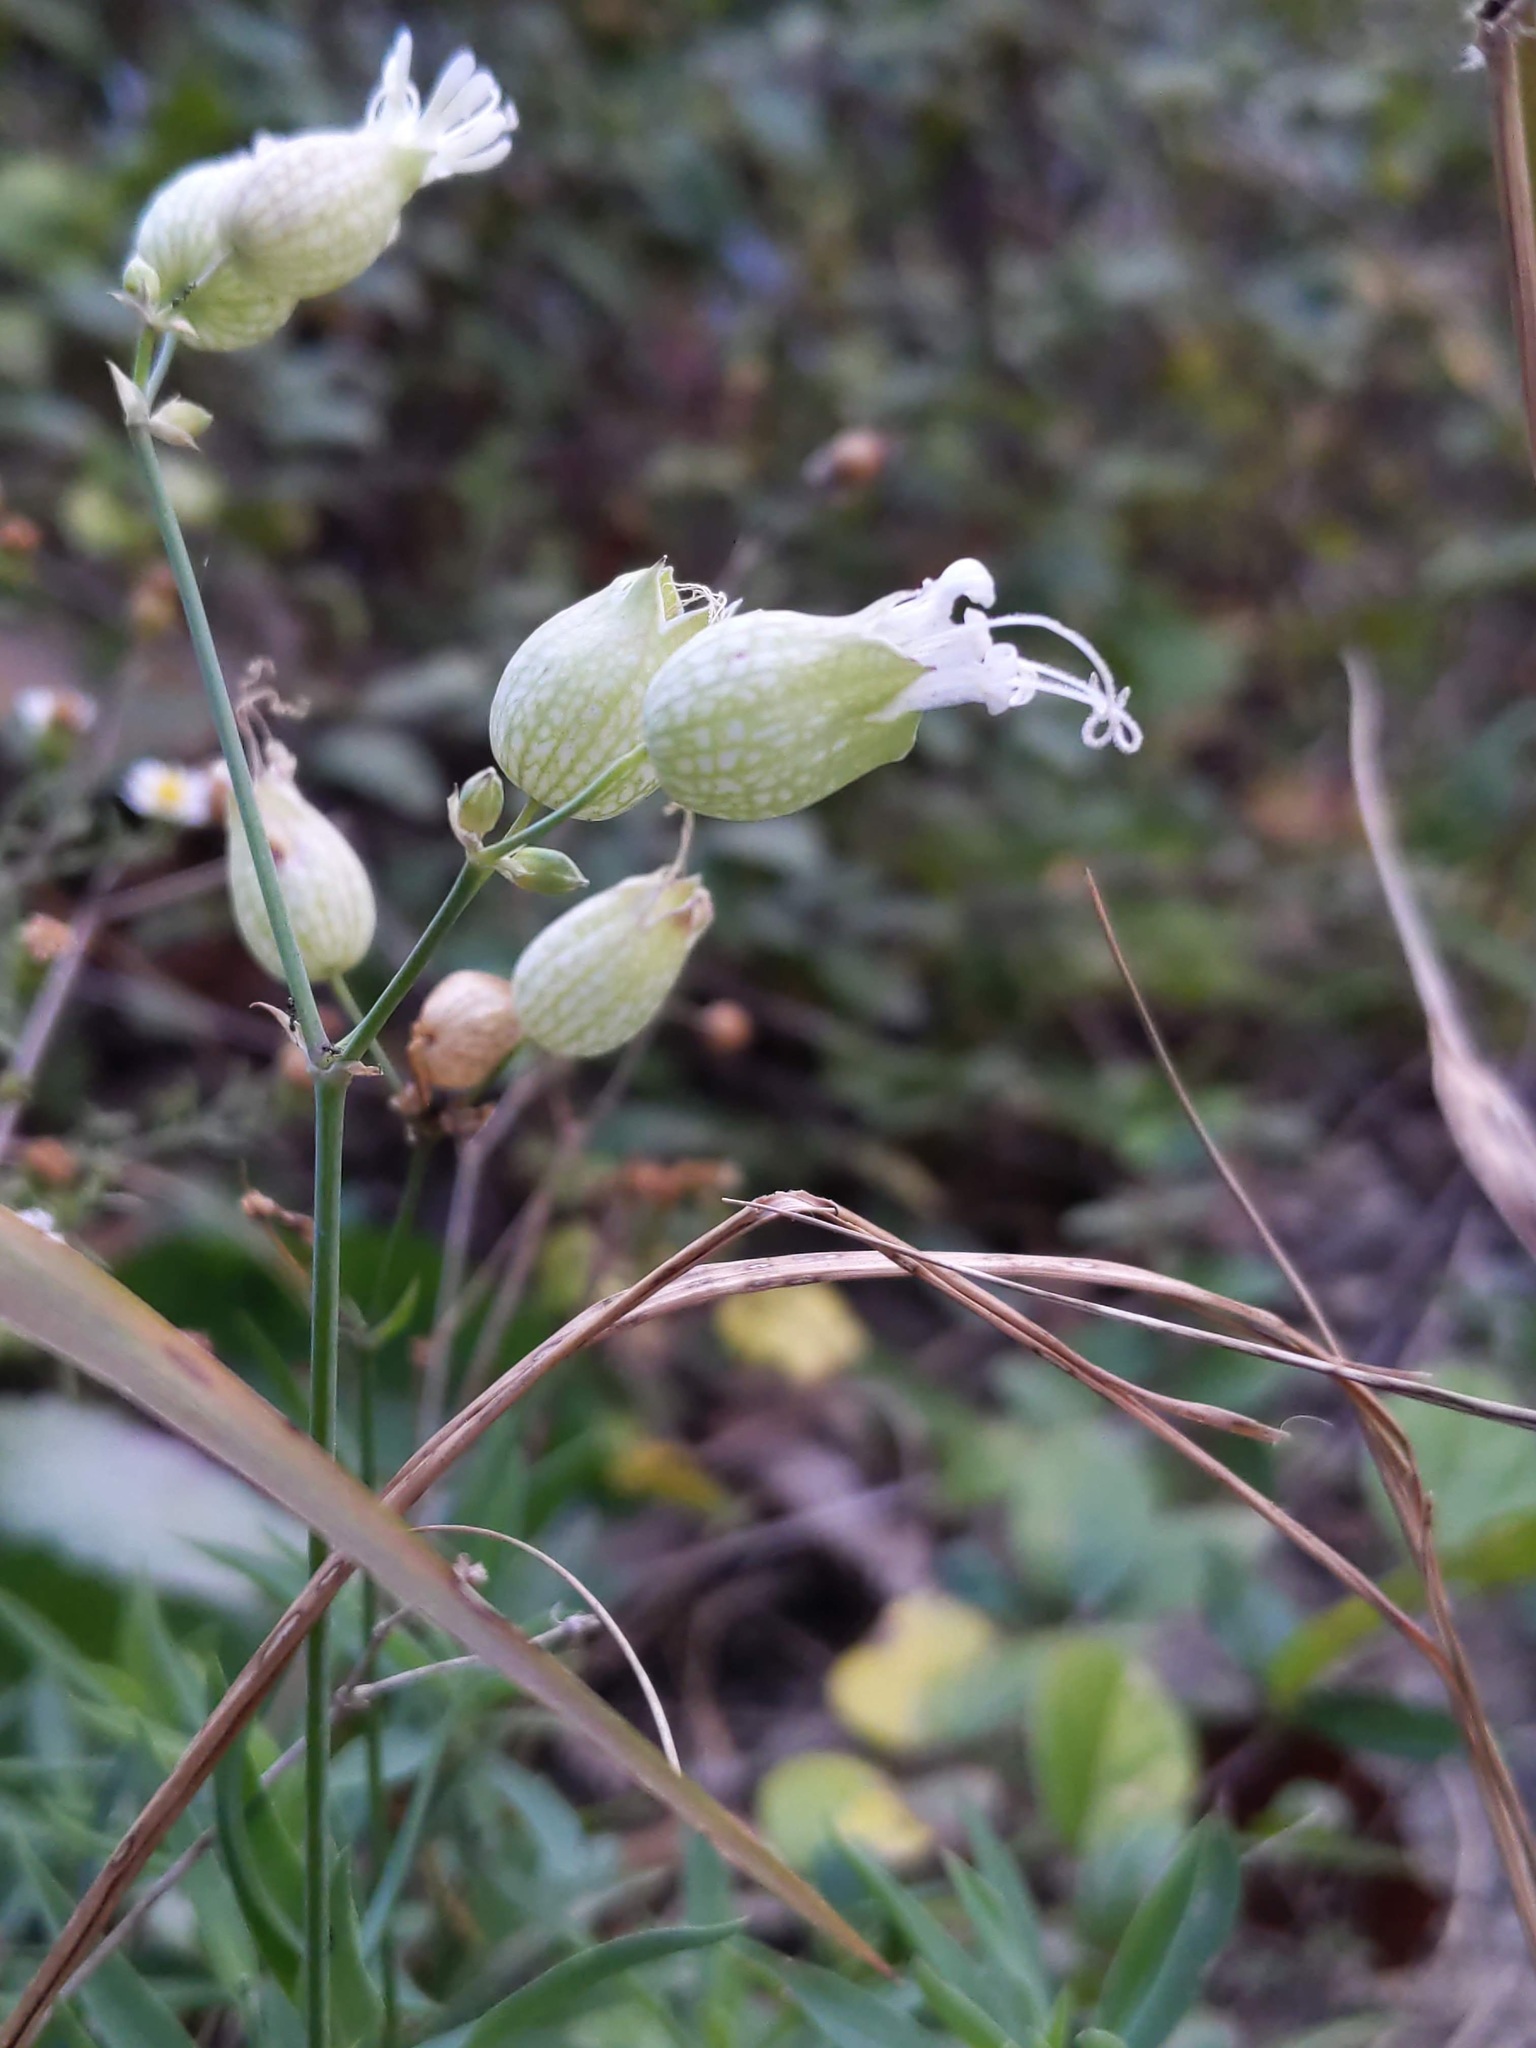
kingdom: Plantae
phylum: Tracheophyta
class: Magnoliopsida
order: Caryophyllales
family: Caryophyllaceae
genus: Silene
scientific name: Silene vulgaris
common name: Bladder campion
